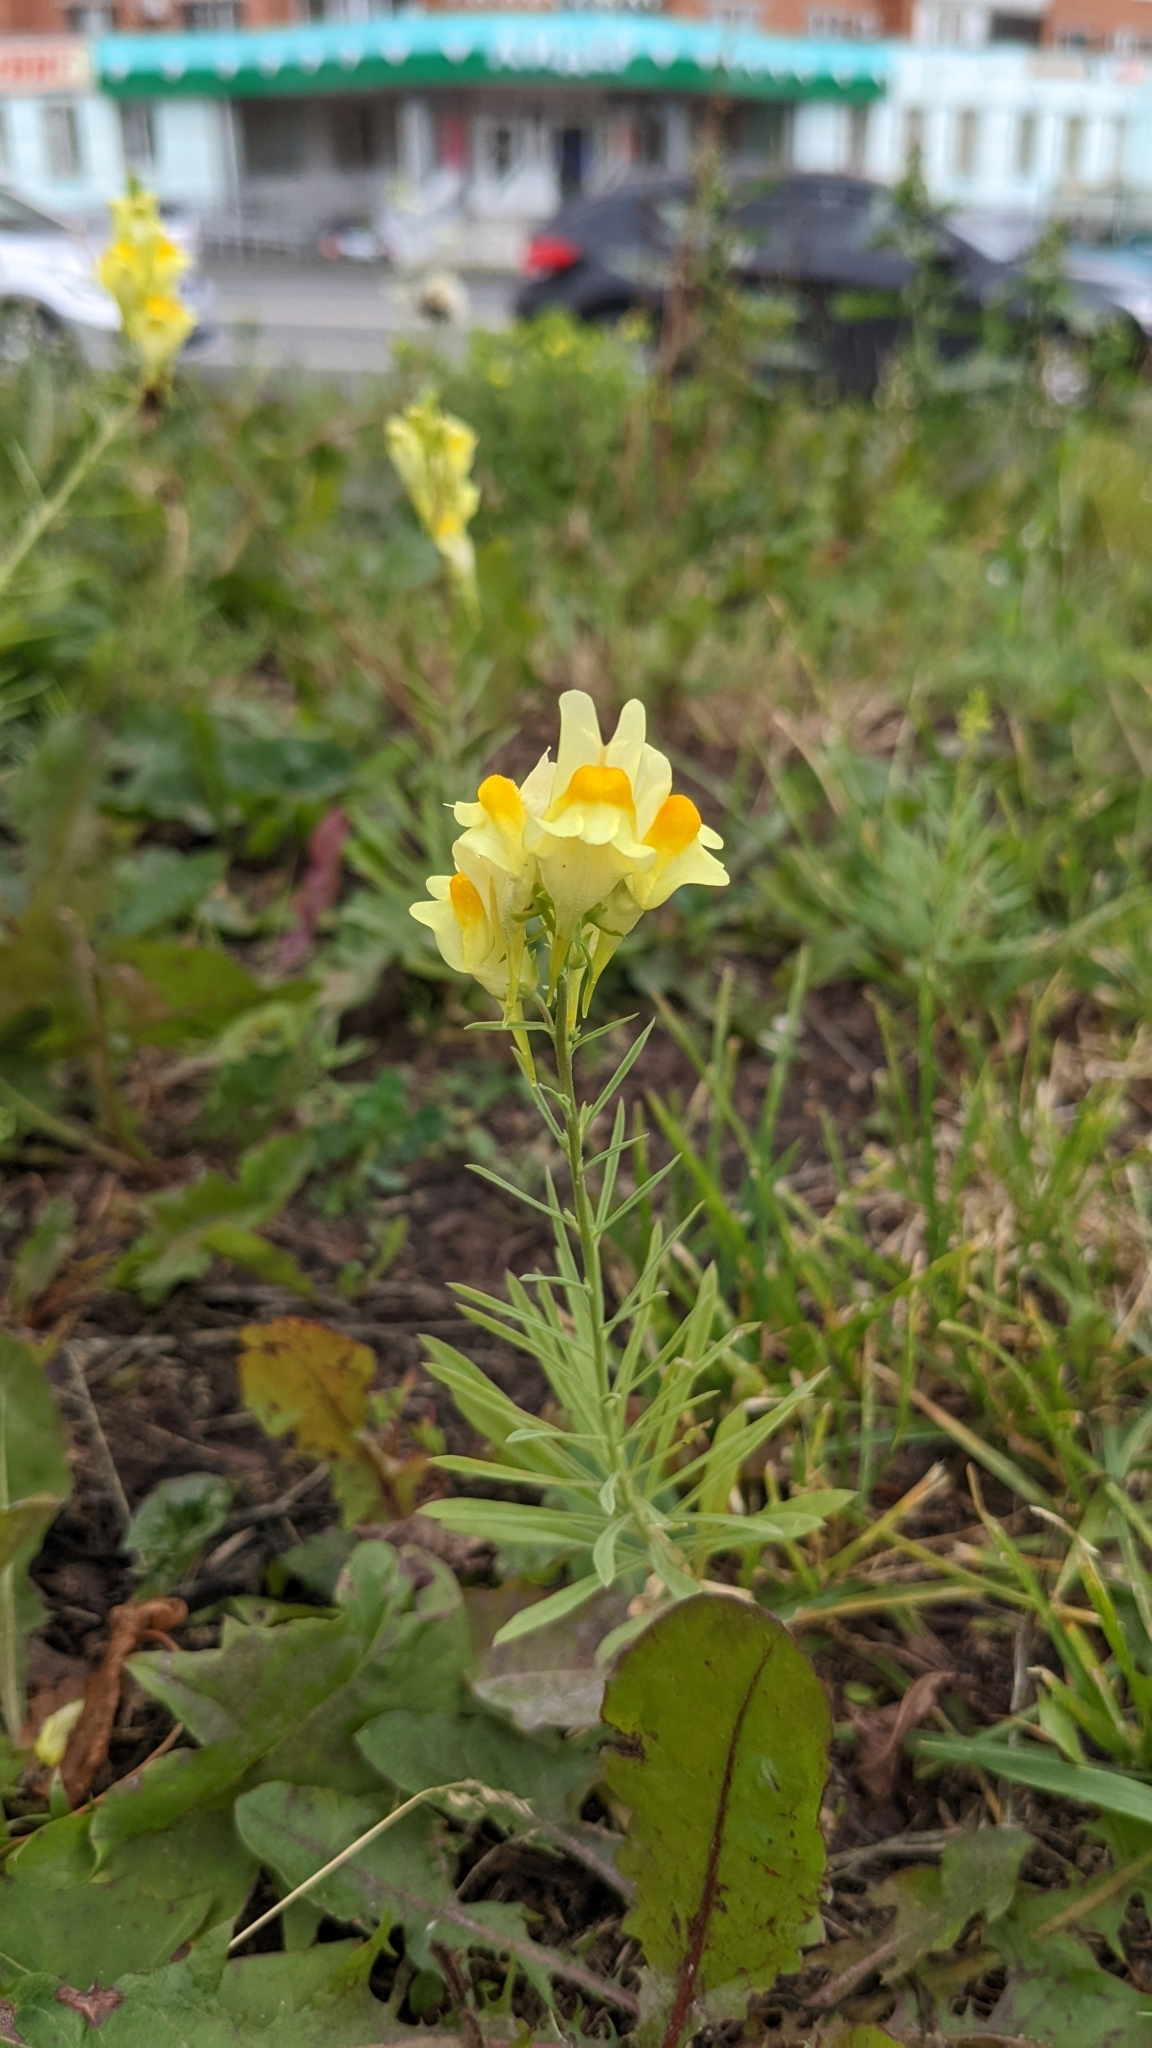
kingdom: Plantae
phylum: Tracheophyta
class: Magnoliopsida
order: Lamiales
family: Plantaginaceae
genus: Linaria
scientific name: Linaria vulgaris
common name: Butter and eggs
